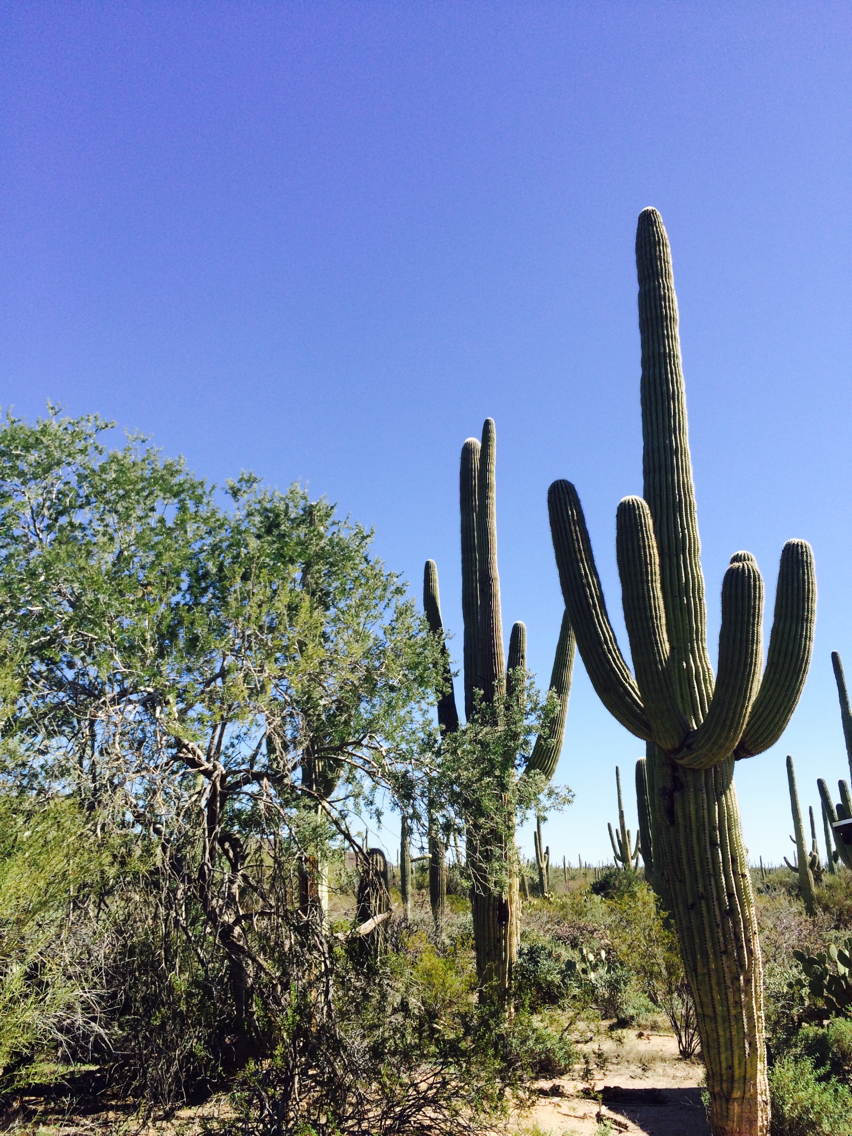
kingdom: Plantae
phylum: Tracheophyta
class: Magnoliopsida
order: Caryophyllales
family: Cactaceae
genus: Carnegiea
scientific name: Carnegiea gigantea
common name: Saguaro
